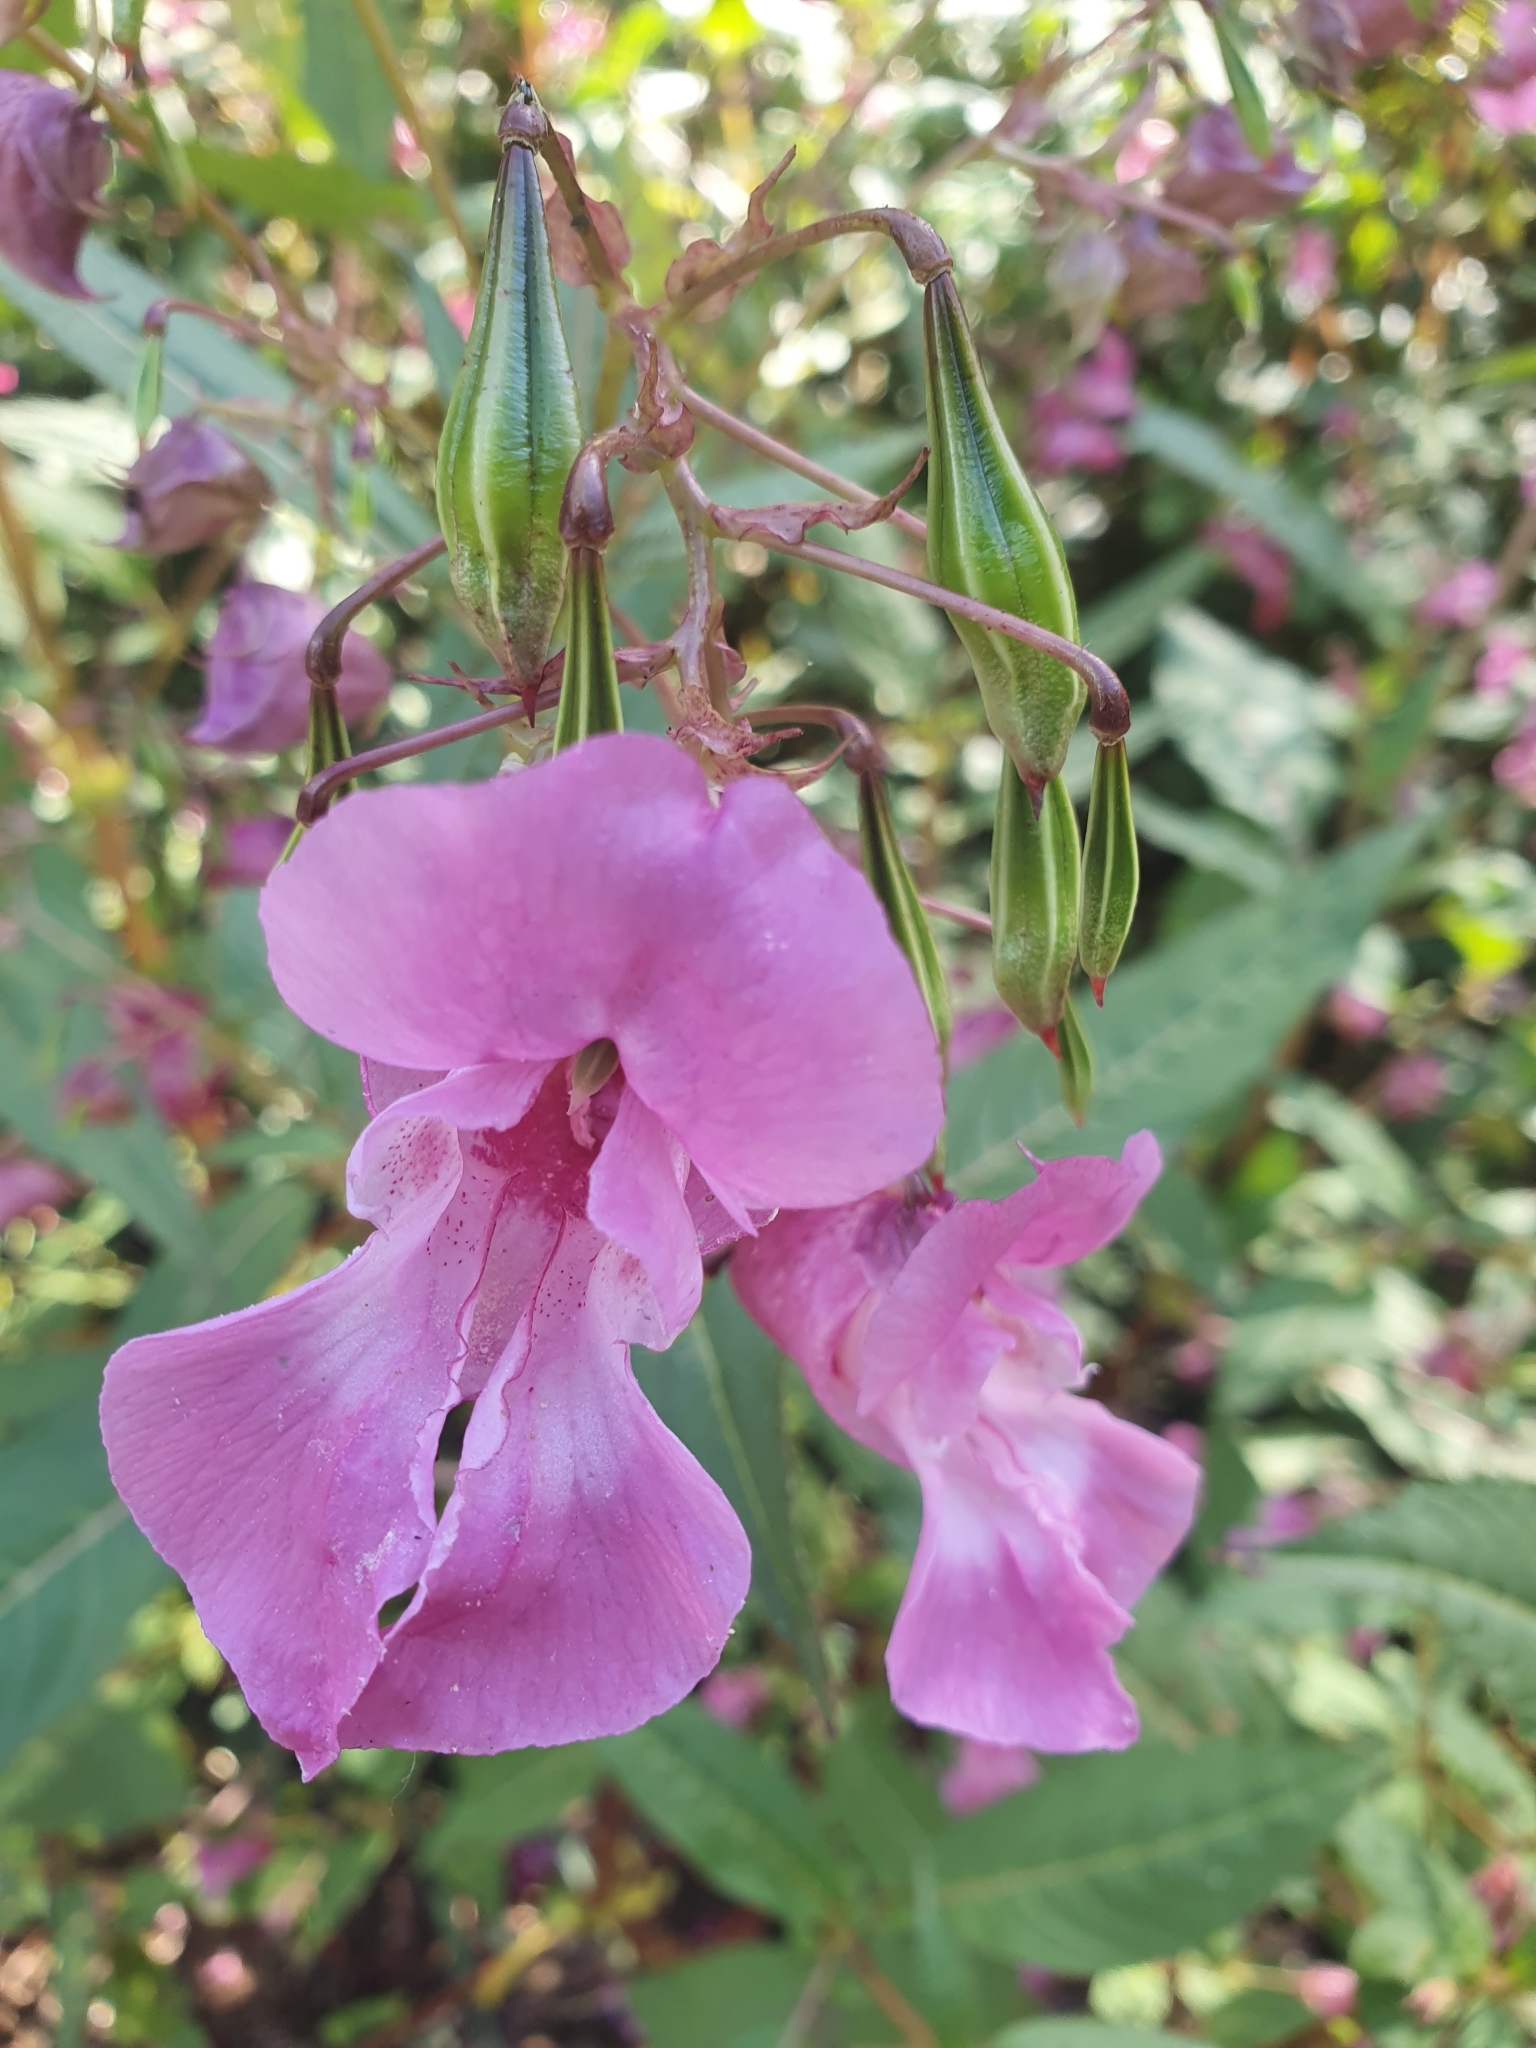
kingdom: Plantae
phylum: Tracheophyta
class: Magnoliopsida
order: Ericales
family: Balsaminaceae
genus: Impatiens
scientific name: Impatiens glandulifera
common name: Himalayan balsam
